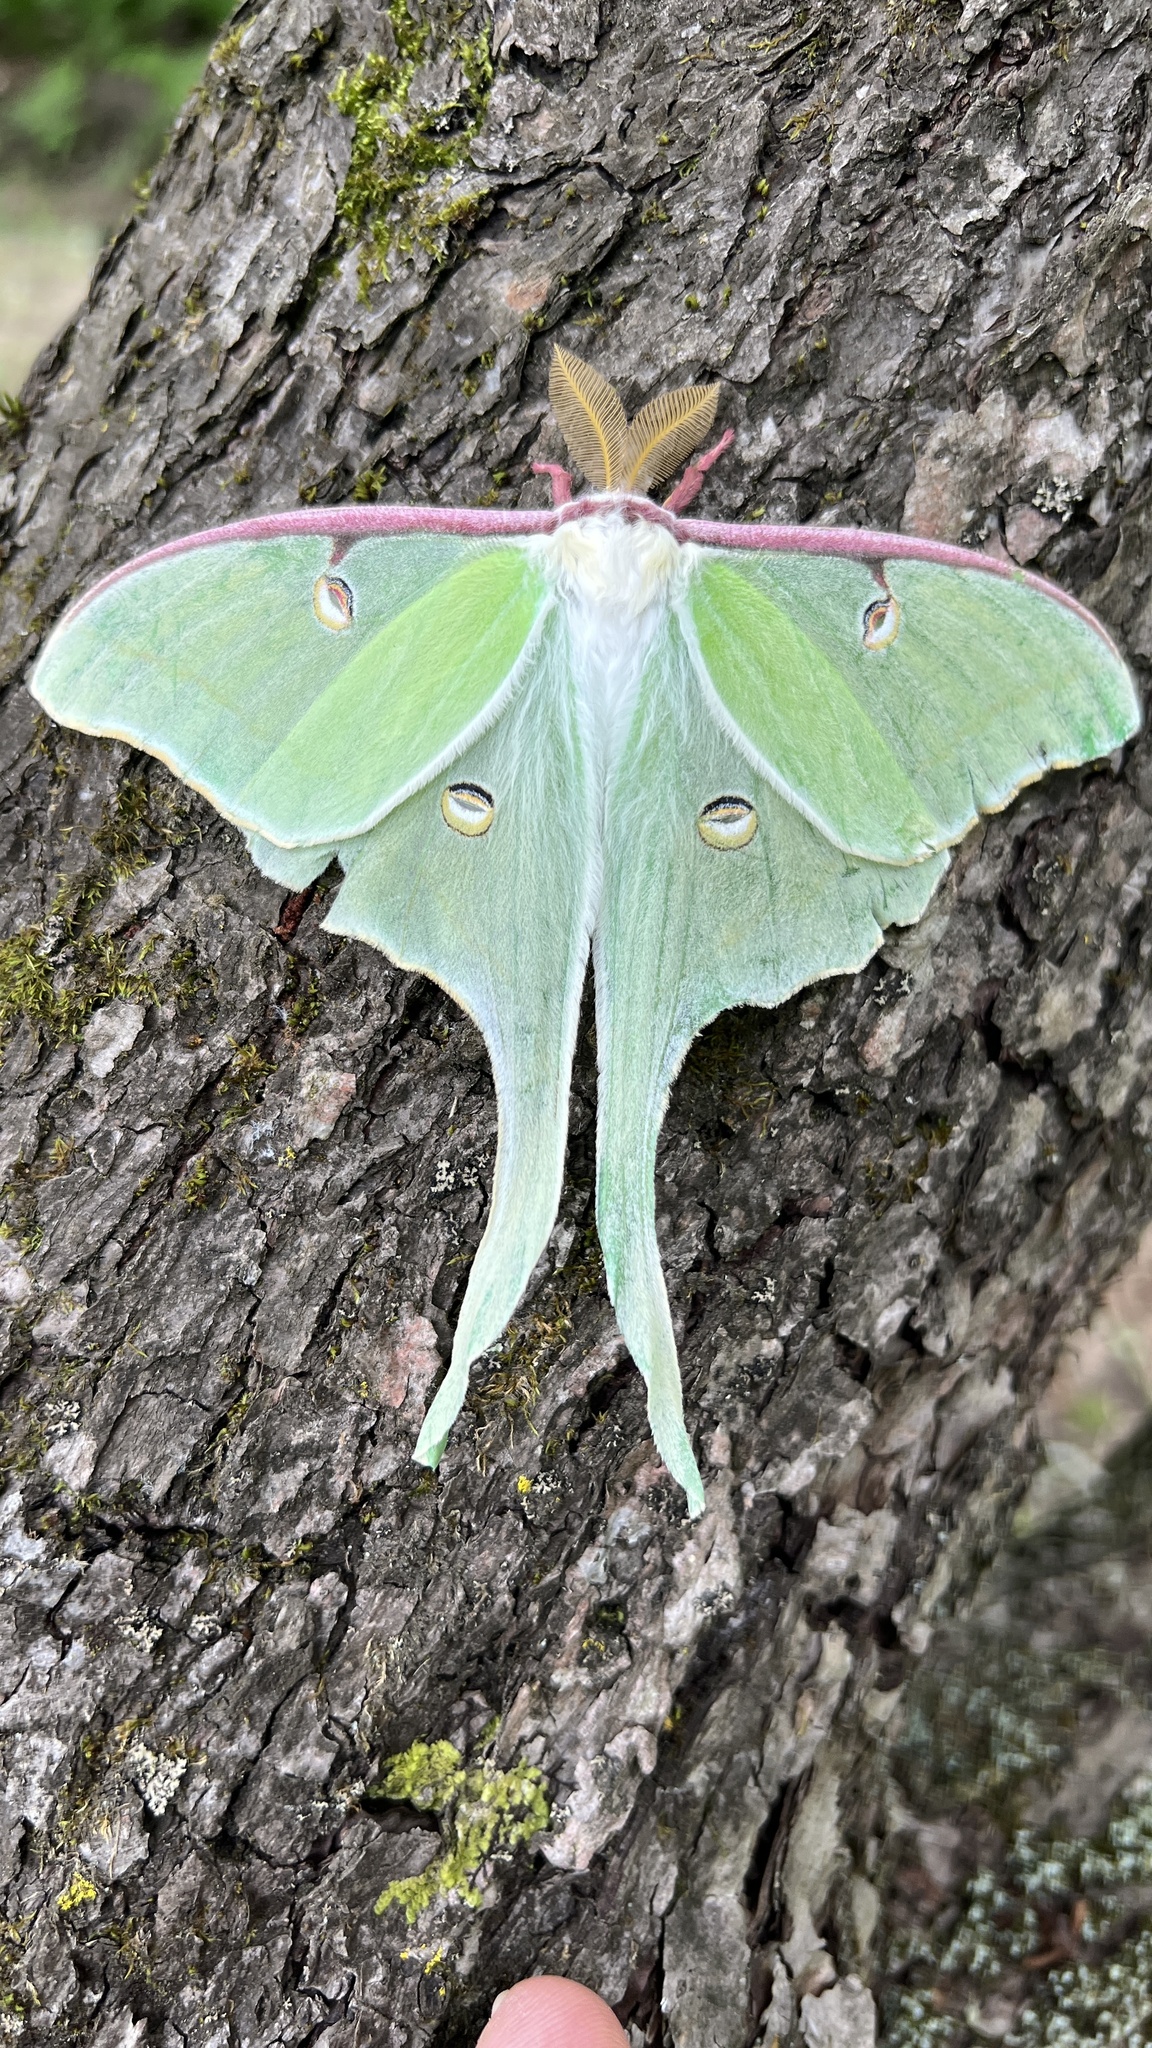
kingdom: Animalia
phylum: Arthropoda
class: Insecta
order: Lepidoptera
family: Saturniidae
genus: Actias
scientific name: Actias luna
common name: Luna moth
